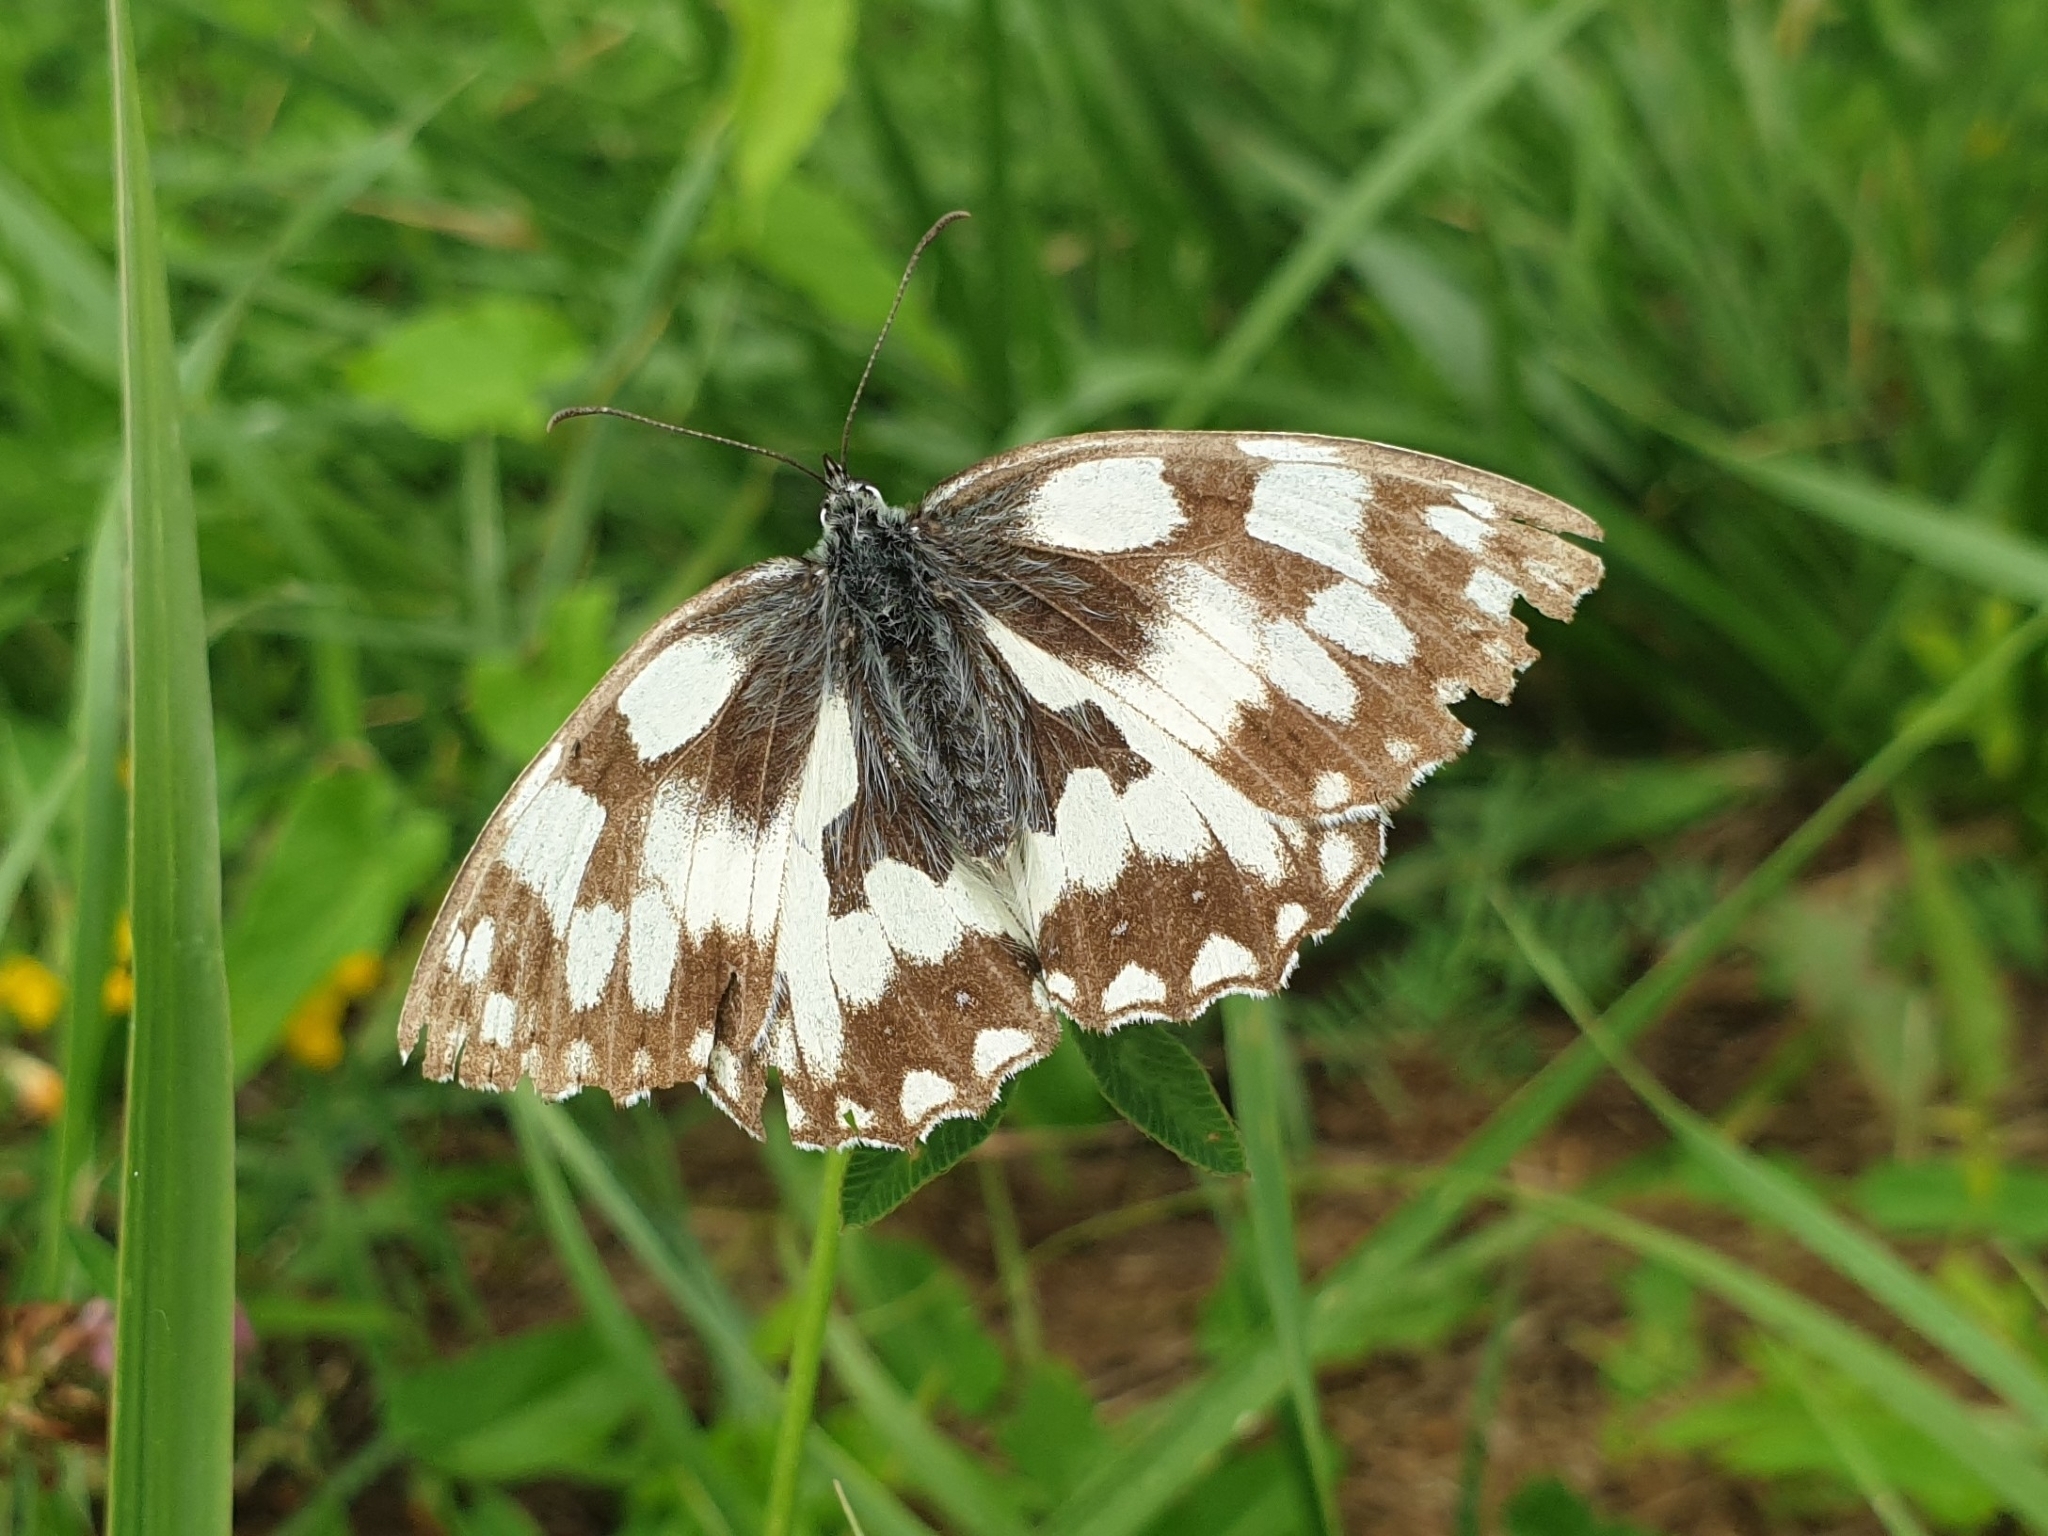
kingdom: Animalia
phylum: Arthropoda
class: Insecta
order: Lepidoptera
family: Nymphalidae
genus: Melanargia
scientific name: Melanargia galathea
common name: Marbled white
